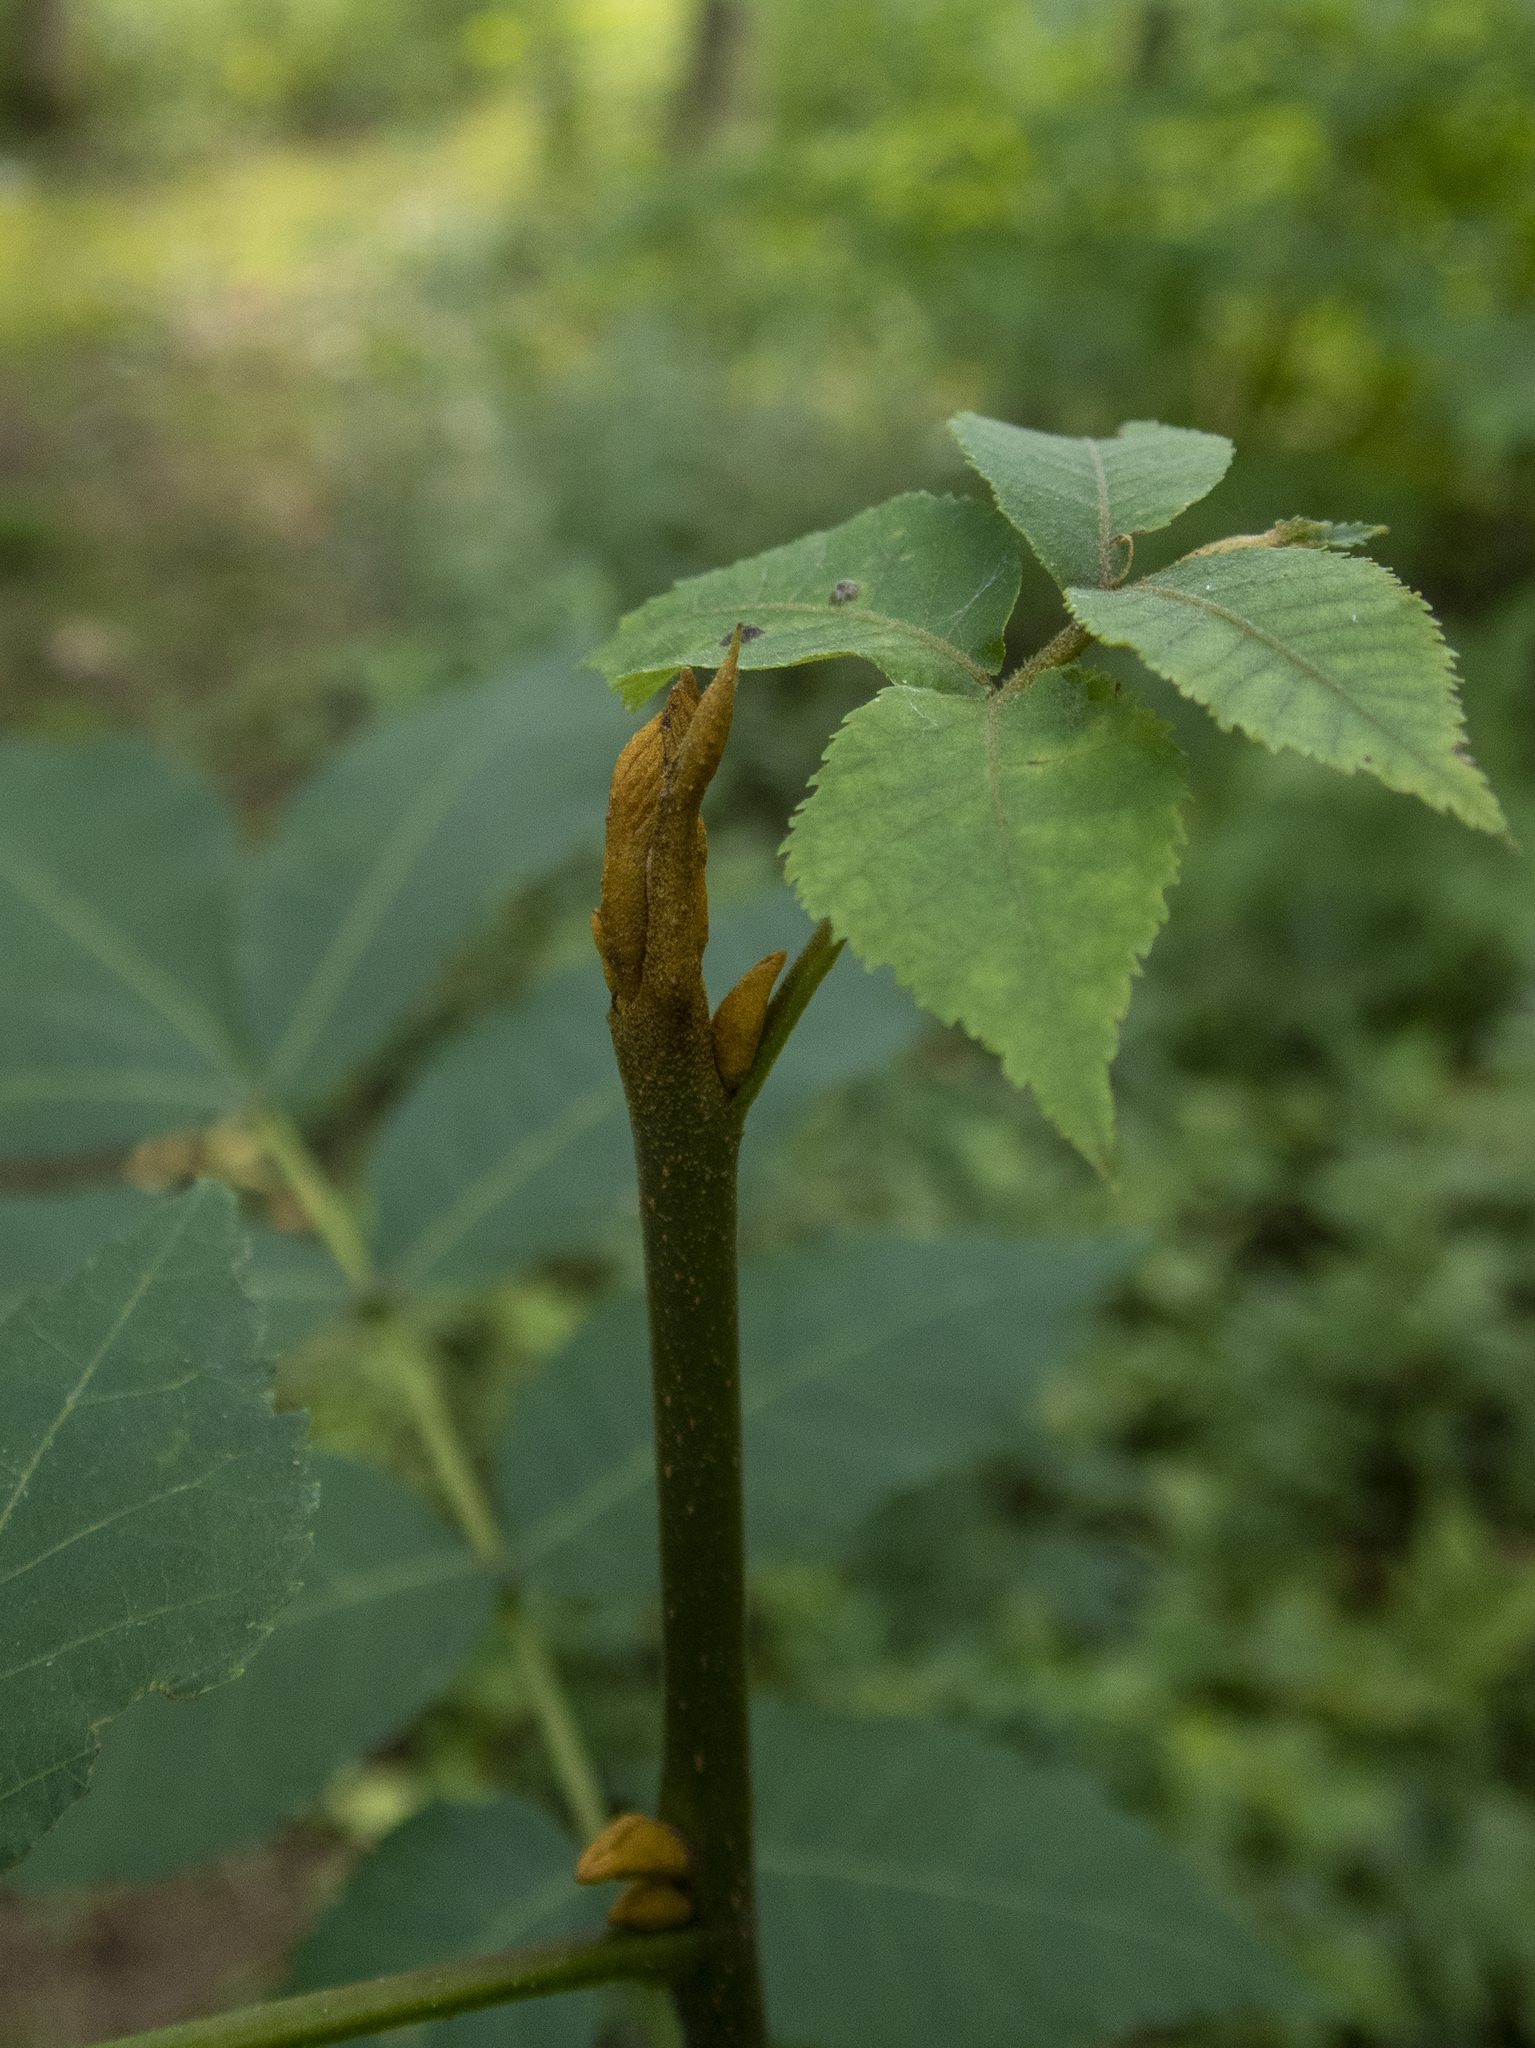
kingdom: Plantae
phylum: Tracheophyta
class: Magnoliopsida
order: Fagales
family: Juglandaceae
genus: Carya
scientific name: Carya cordiformis
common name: Bitternut hickory
